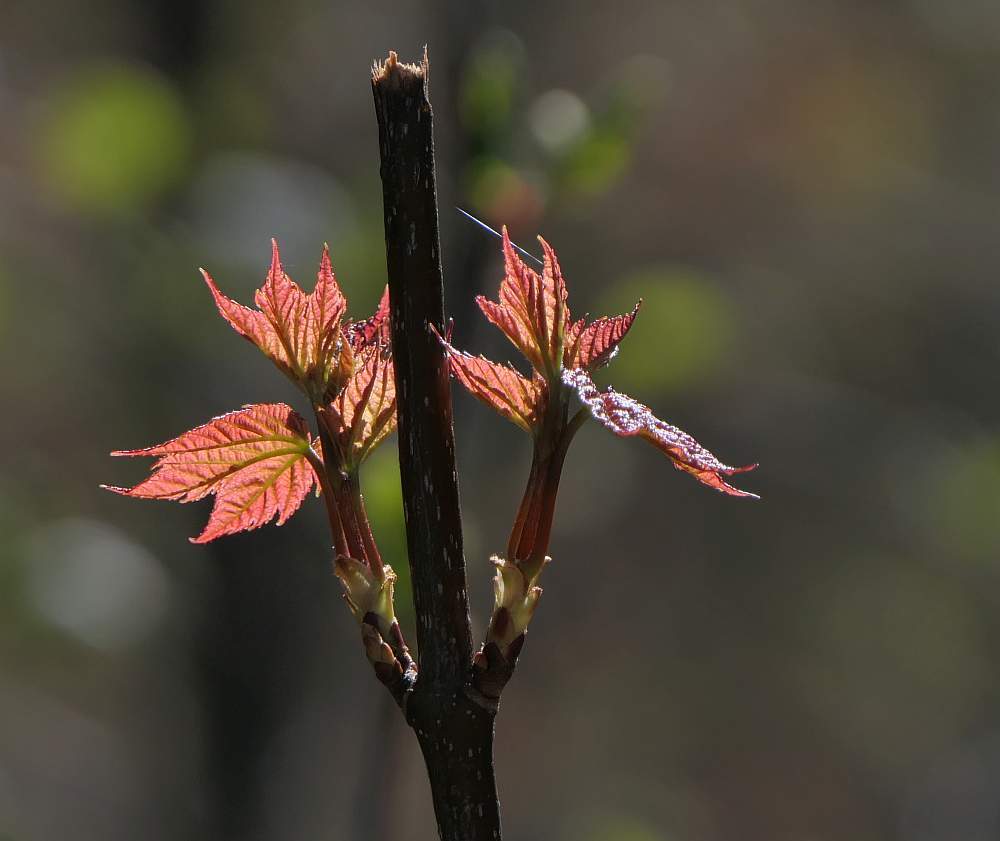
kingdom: Plantae
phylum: Tracheophyta
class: Magnoliopsida
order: Sapindales
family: Sapindaceae
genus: Acer
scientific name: Acer rubrum
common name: Red maple
